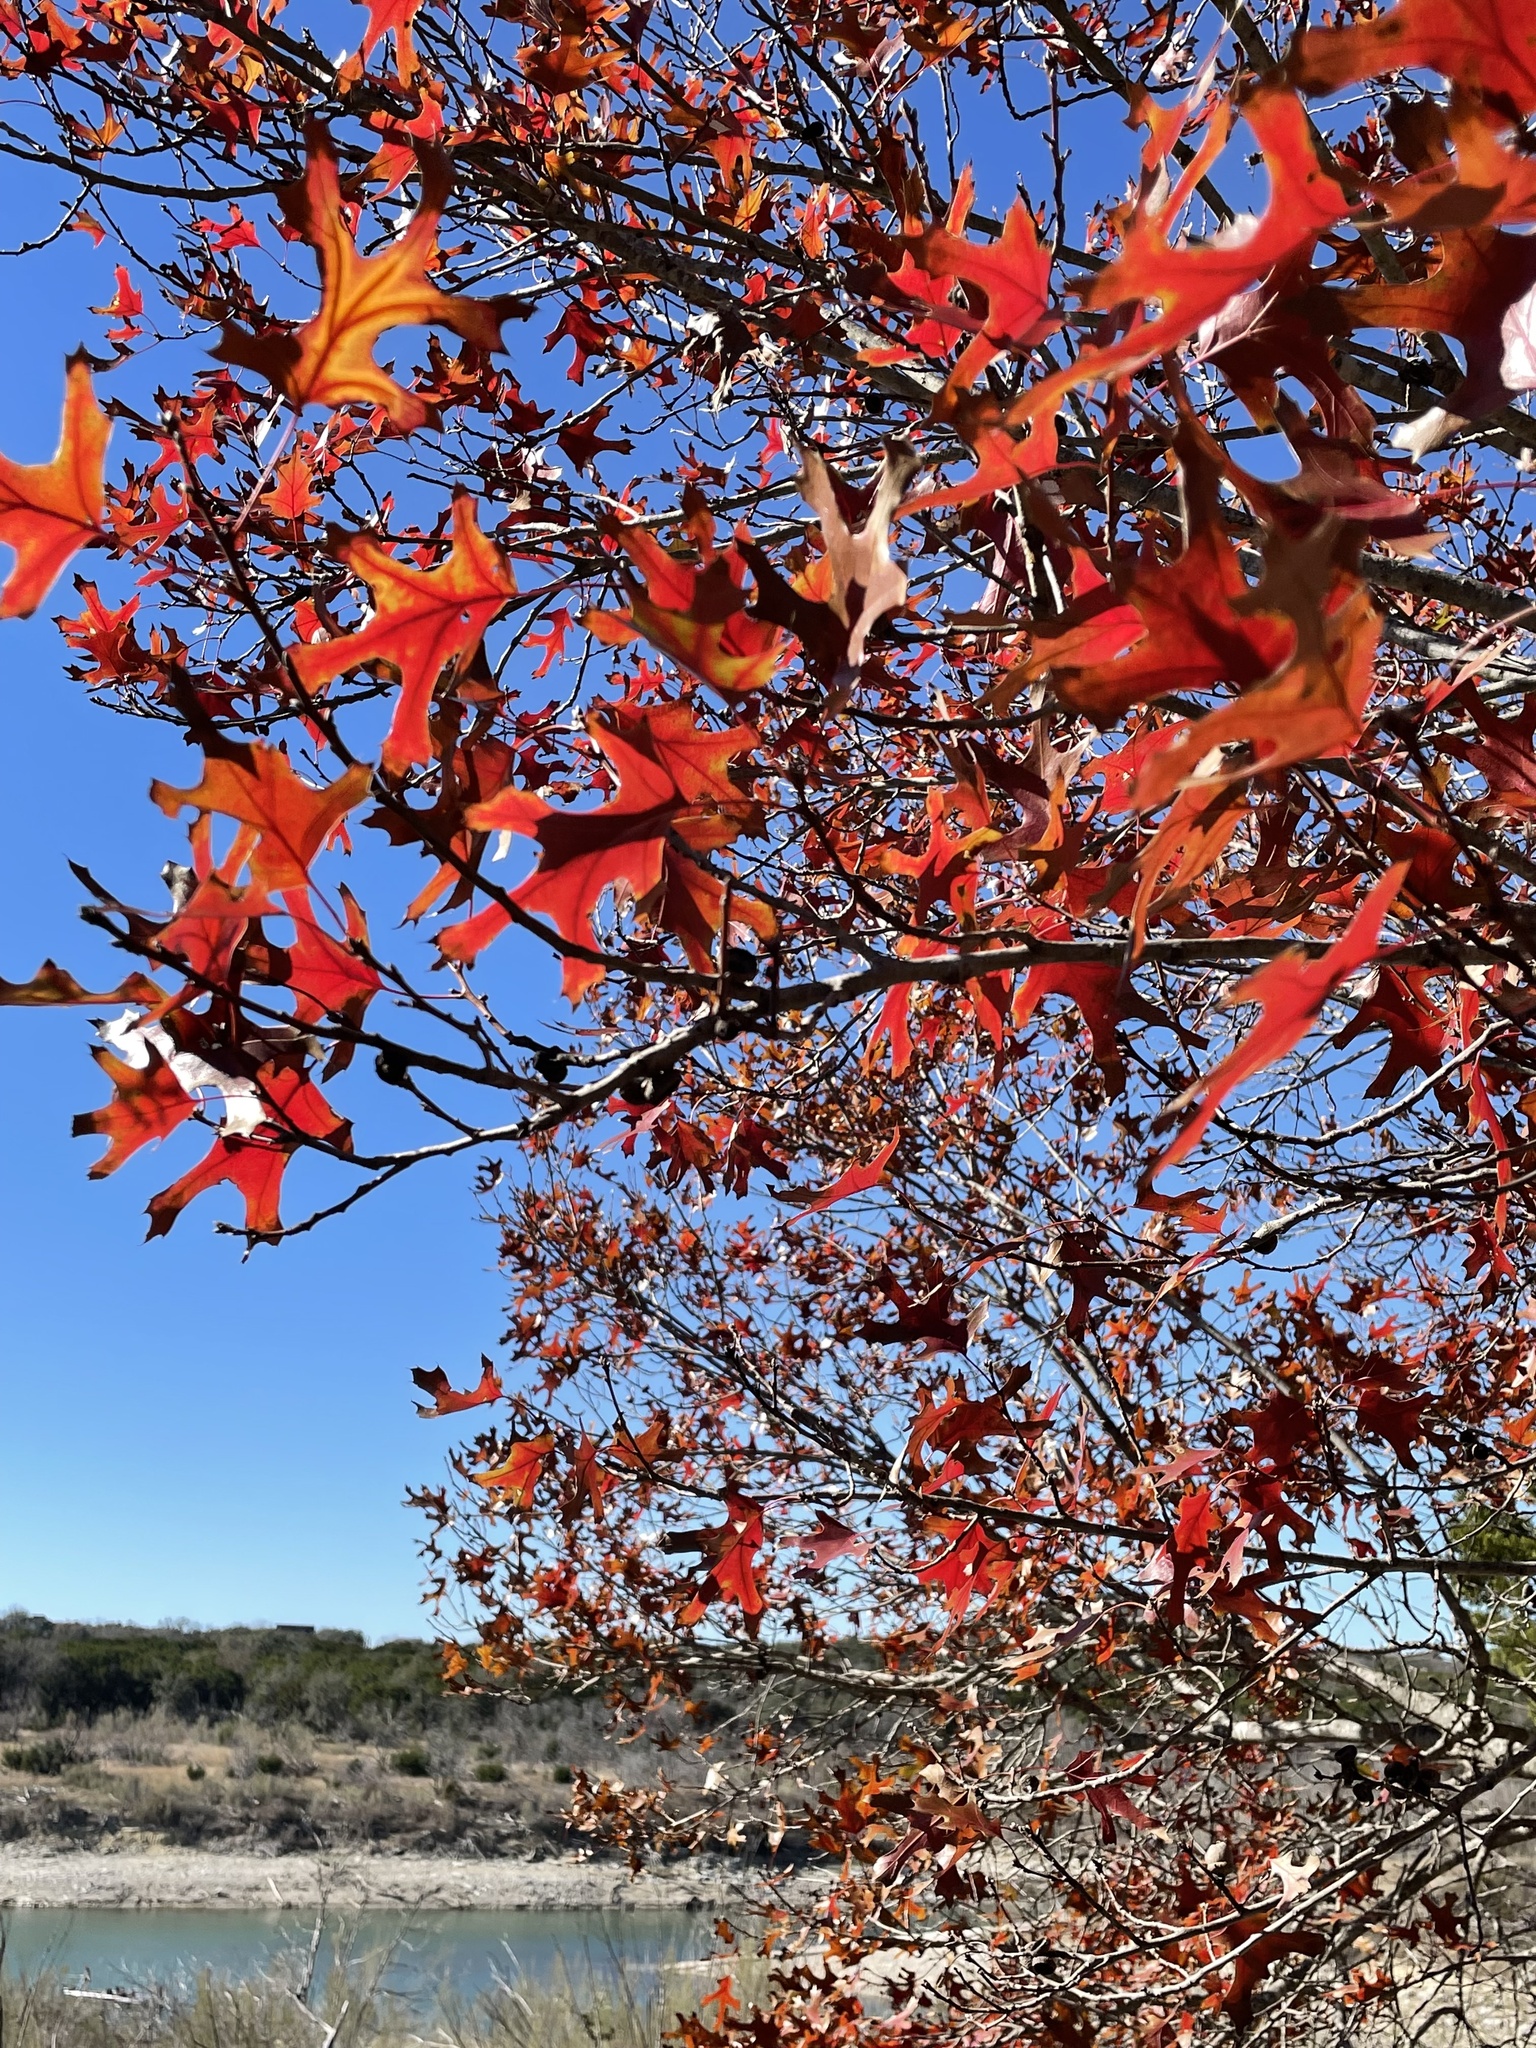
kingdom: Plantae
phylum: Tracheophyta
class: Magnoliopsida
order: Fagales
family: Fagaceae
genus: Quercus
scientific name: Quercus buckleyi
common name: Buckley oak
